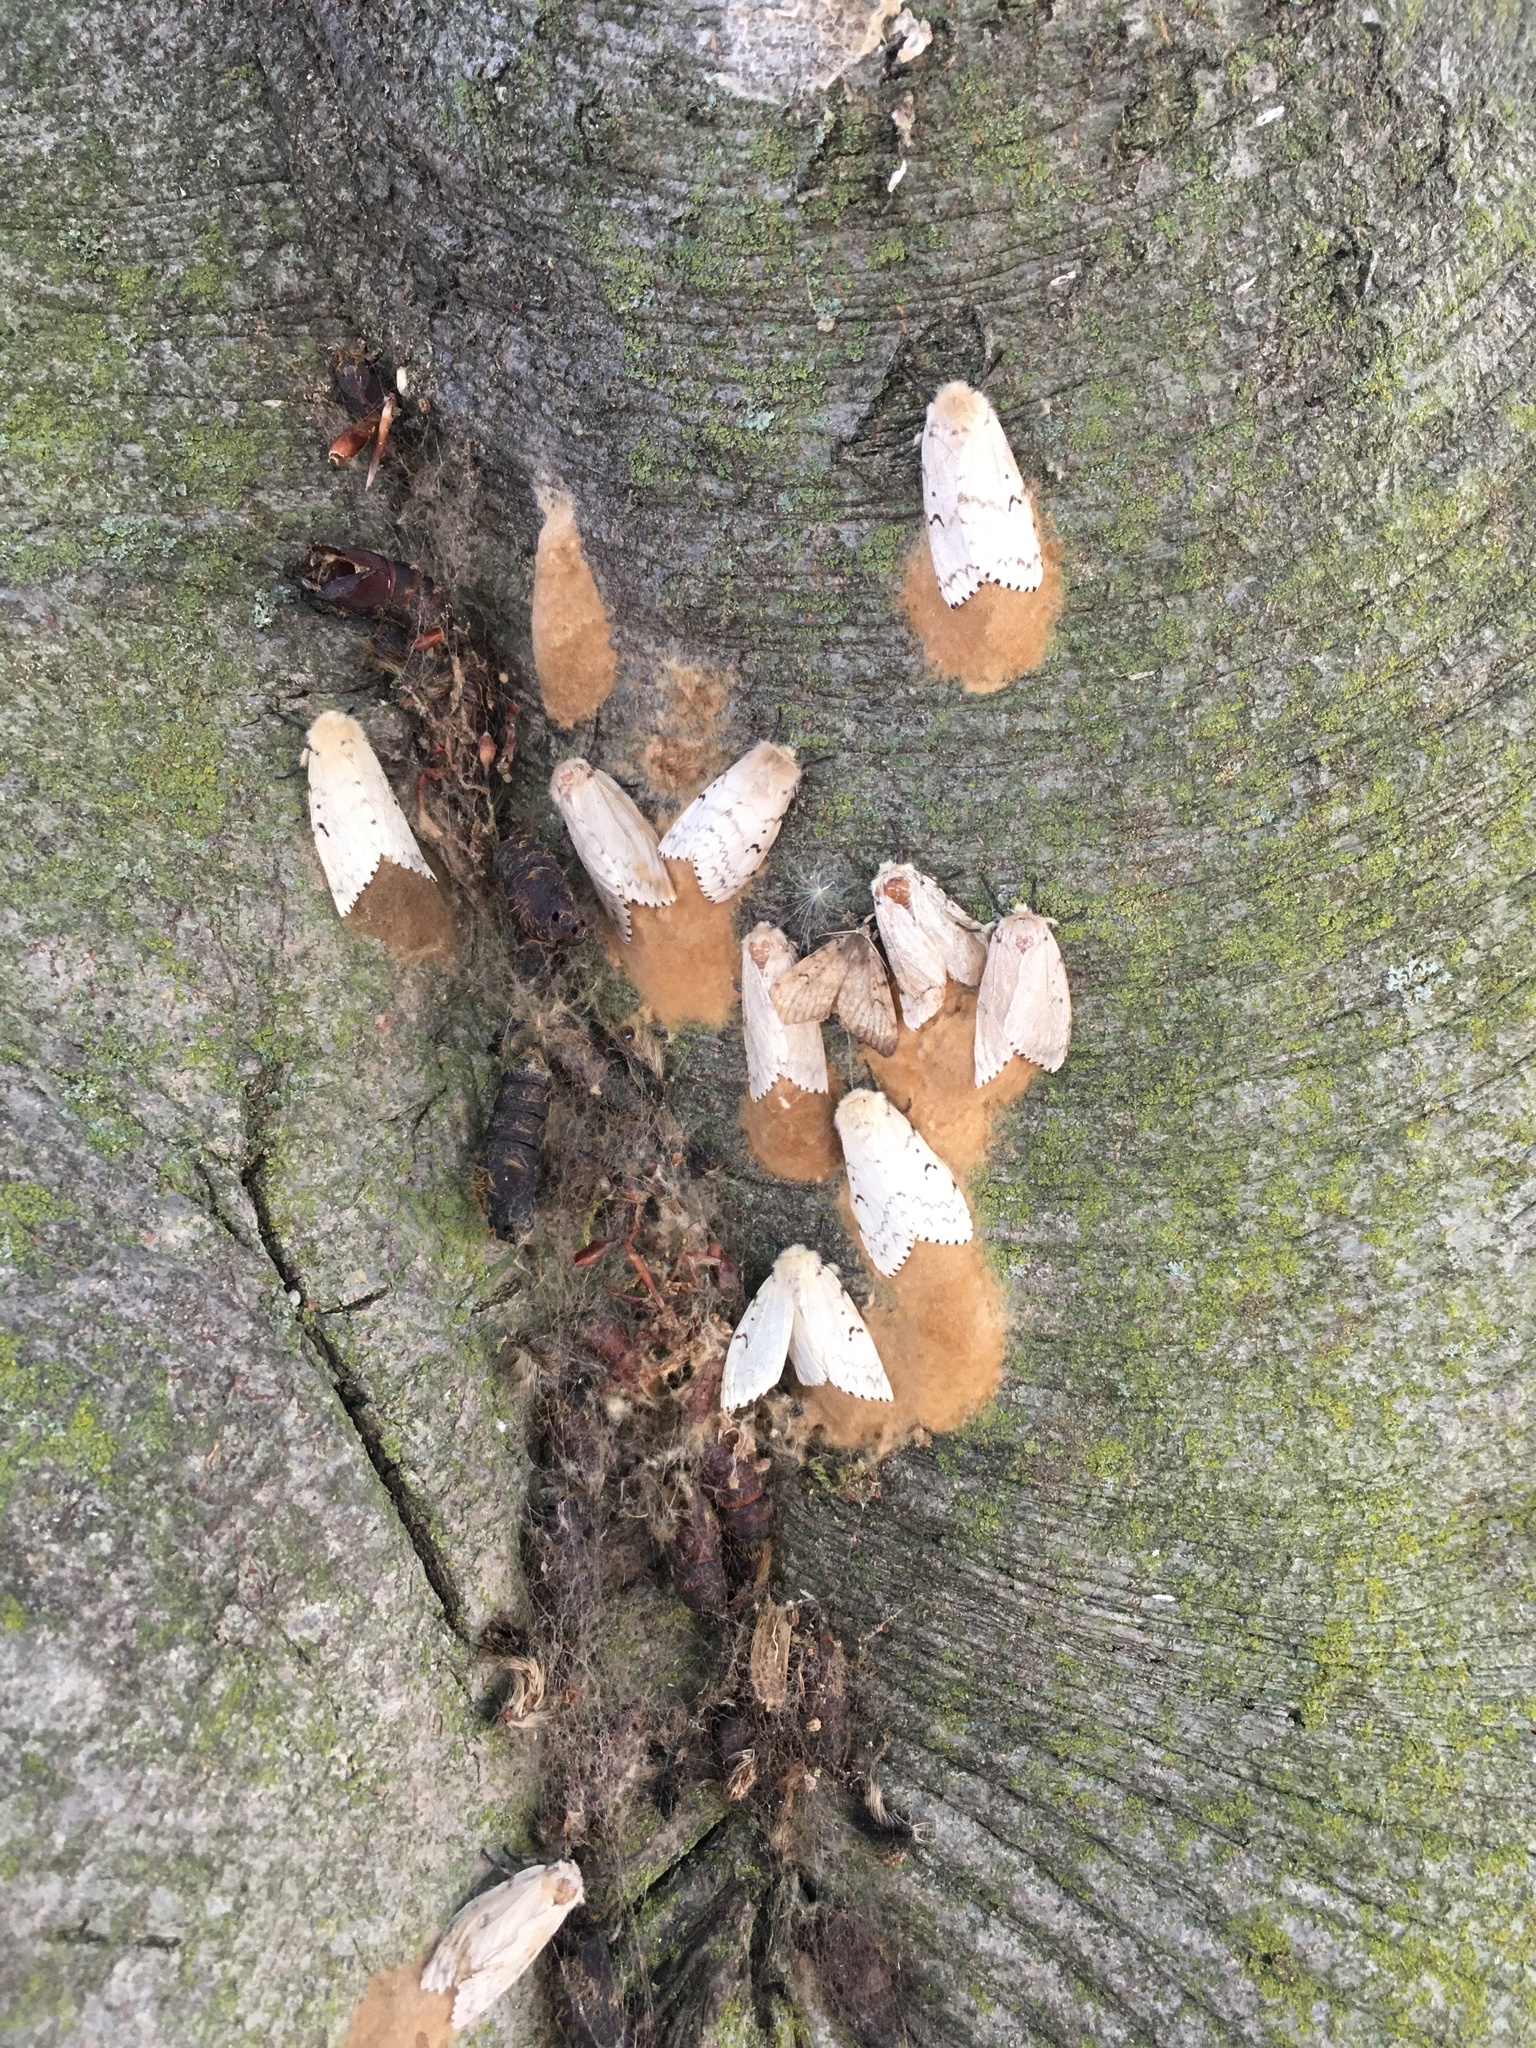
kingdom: Animalia
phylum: Arthropoda
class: Insecta
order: Lepidoptera
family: Erebidae
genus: Lymantria
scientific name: Lymantria dispar
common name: Gypsy moth
